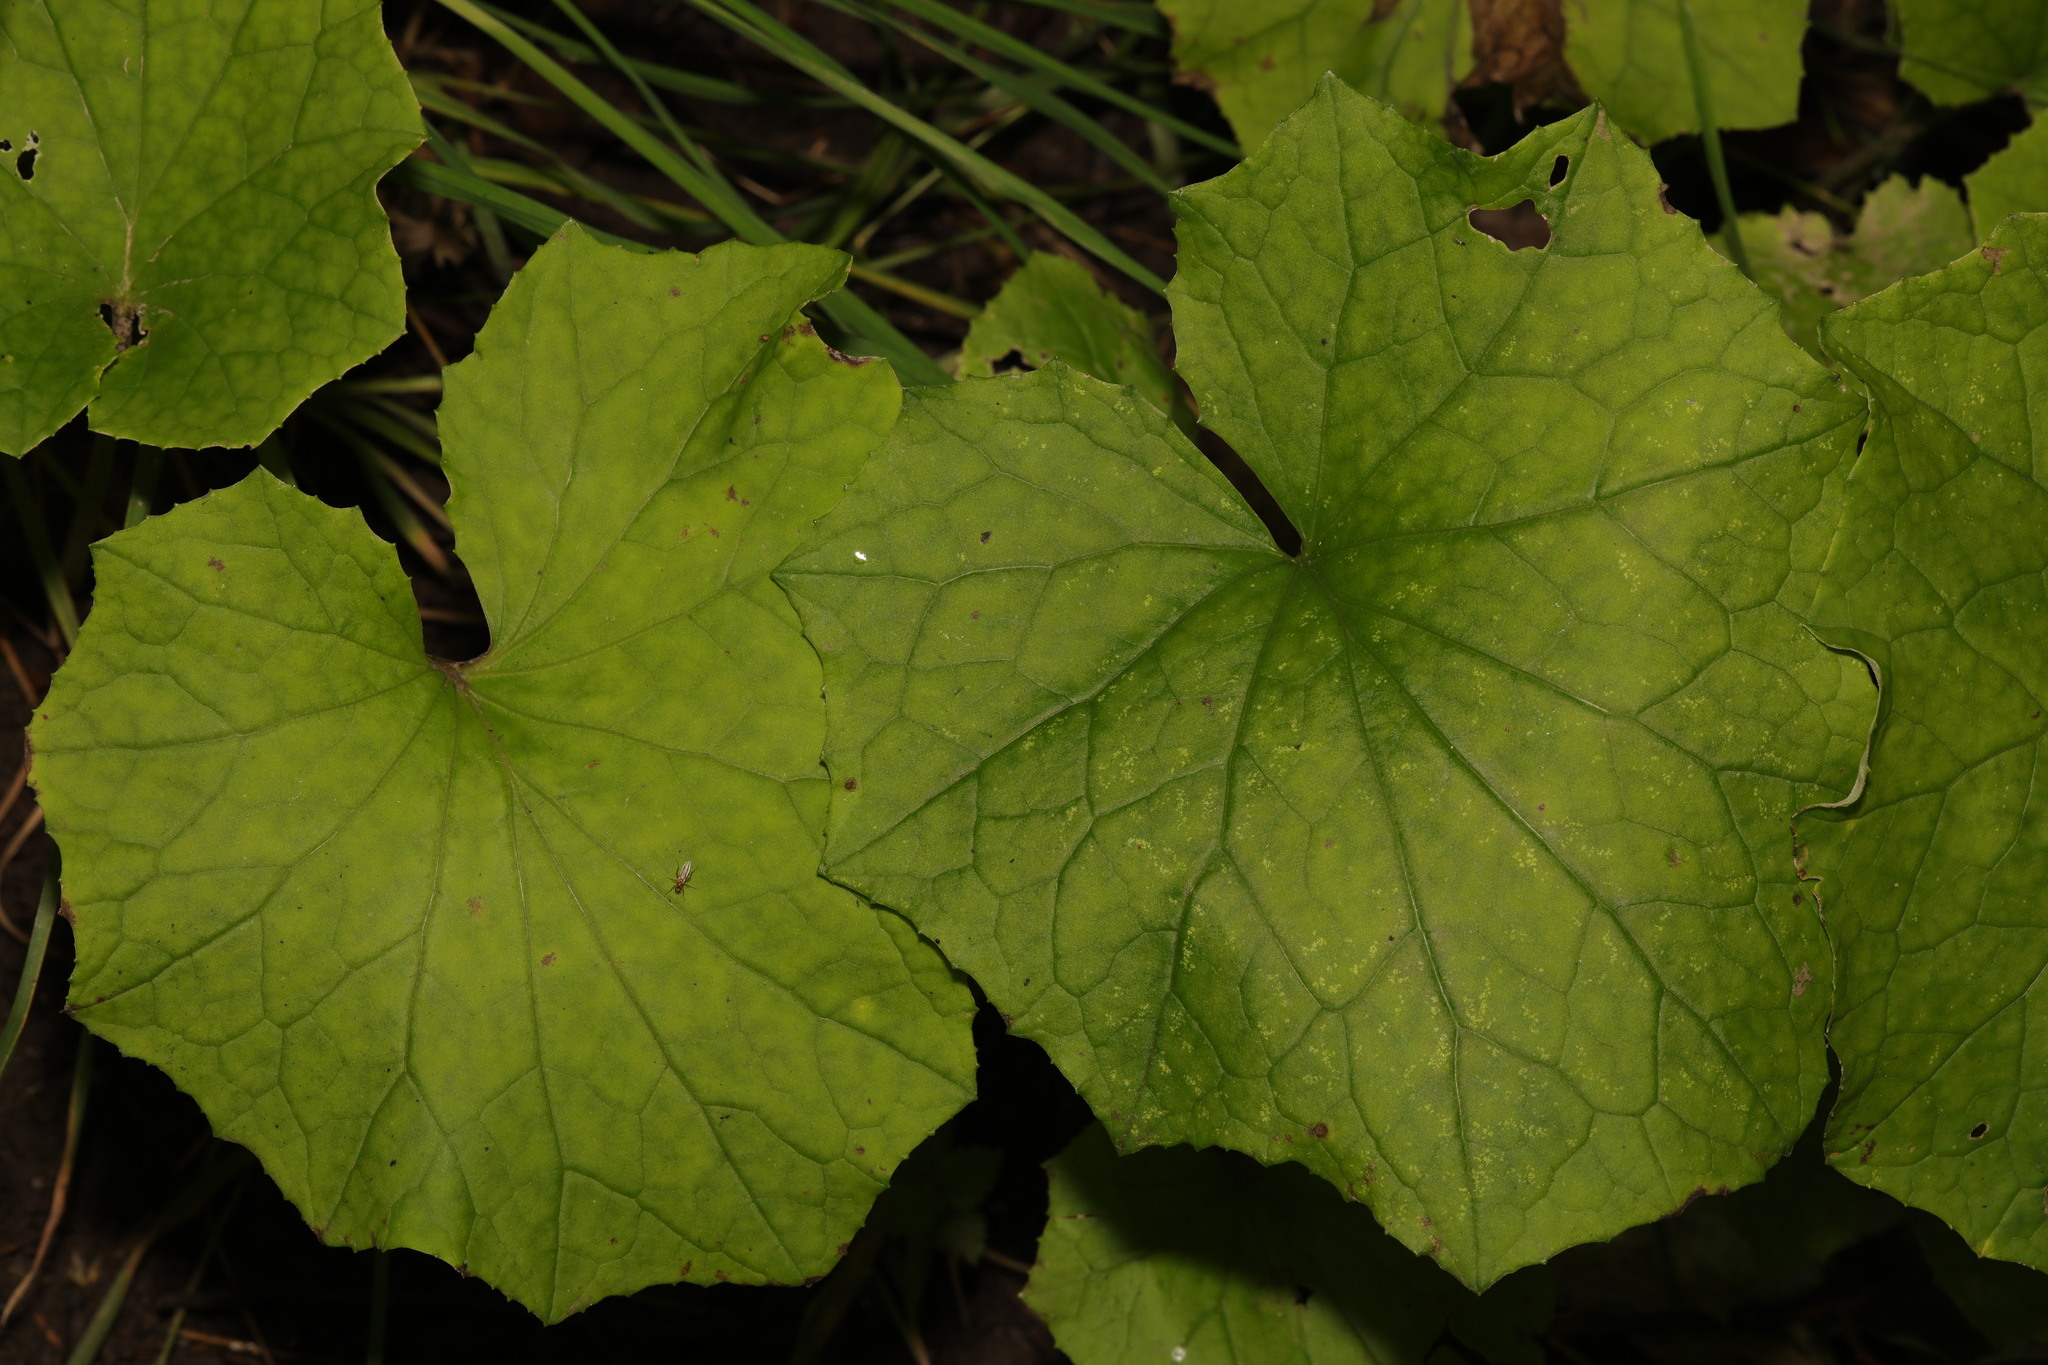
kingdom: Plantae
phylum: Tracheophyta
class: Magnoliopsida
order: Asterales
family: Asteraceae
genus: Tussilago
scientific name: Tussilago farfara
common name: Coltsfoot
